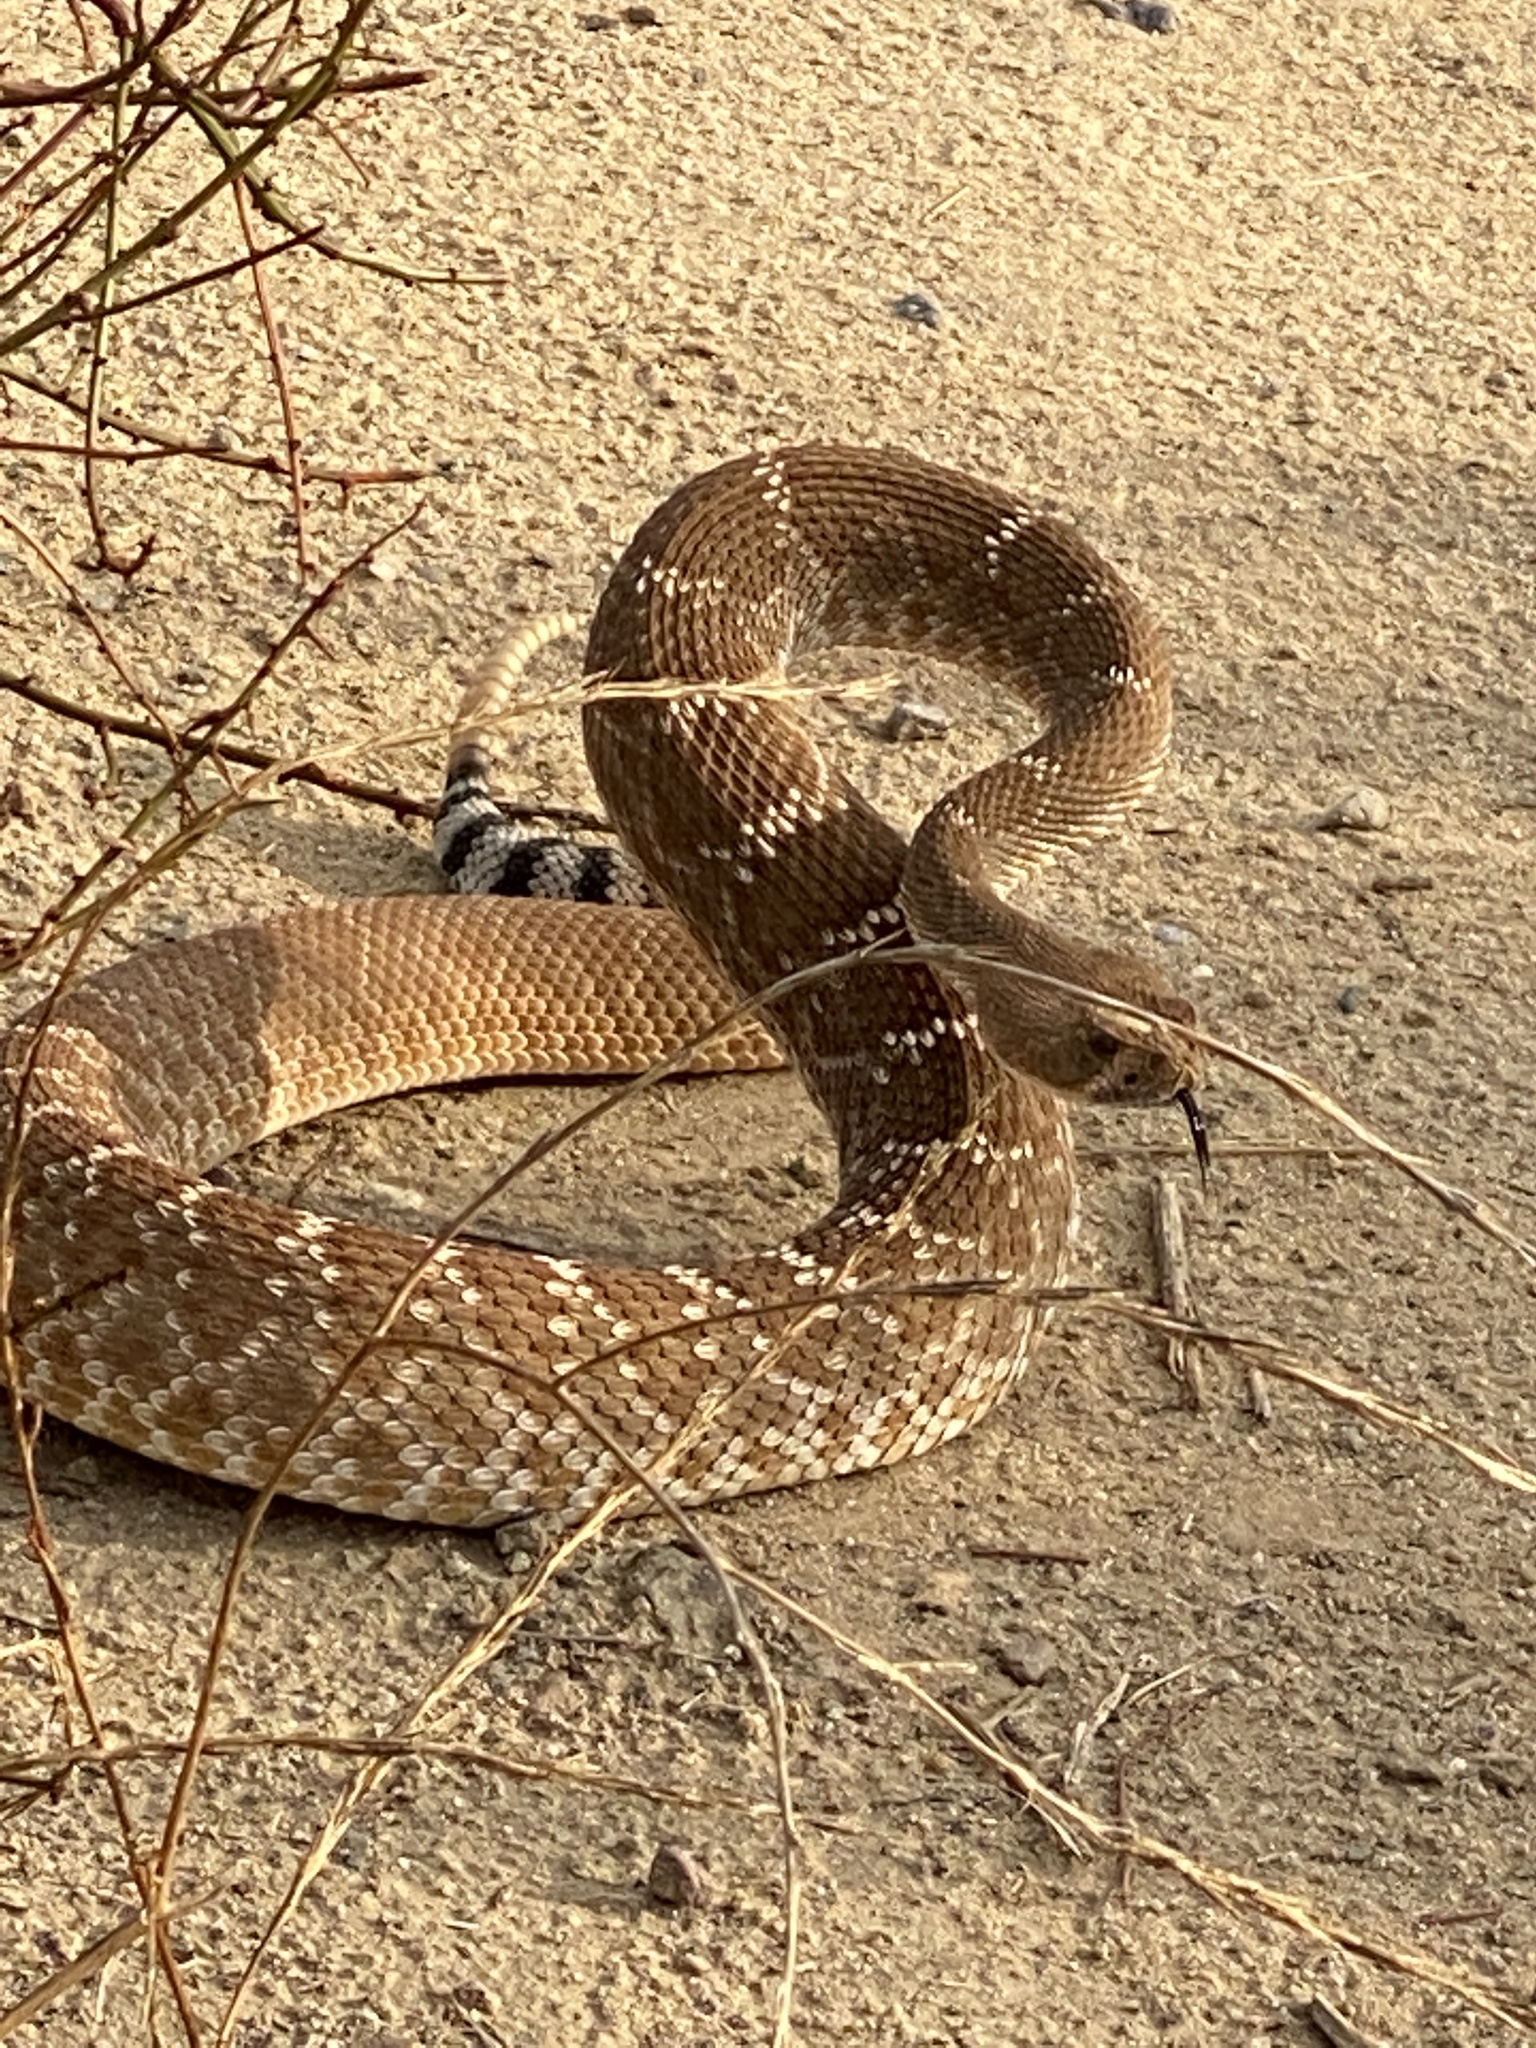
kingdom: Animalia
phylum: Chordata
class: Squamata
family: Viperidae
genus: Crotalus
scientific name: Crotalus ruber
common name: Red diamond rattlesnake
